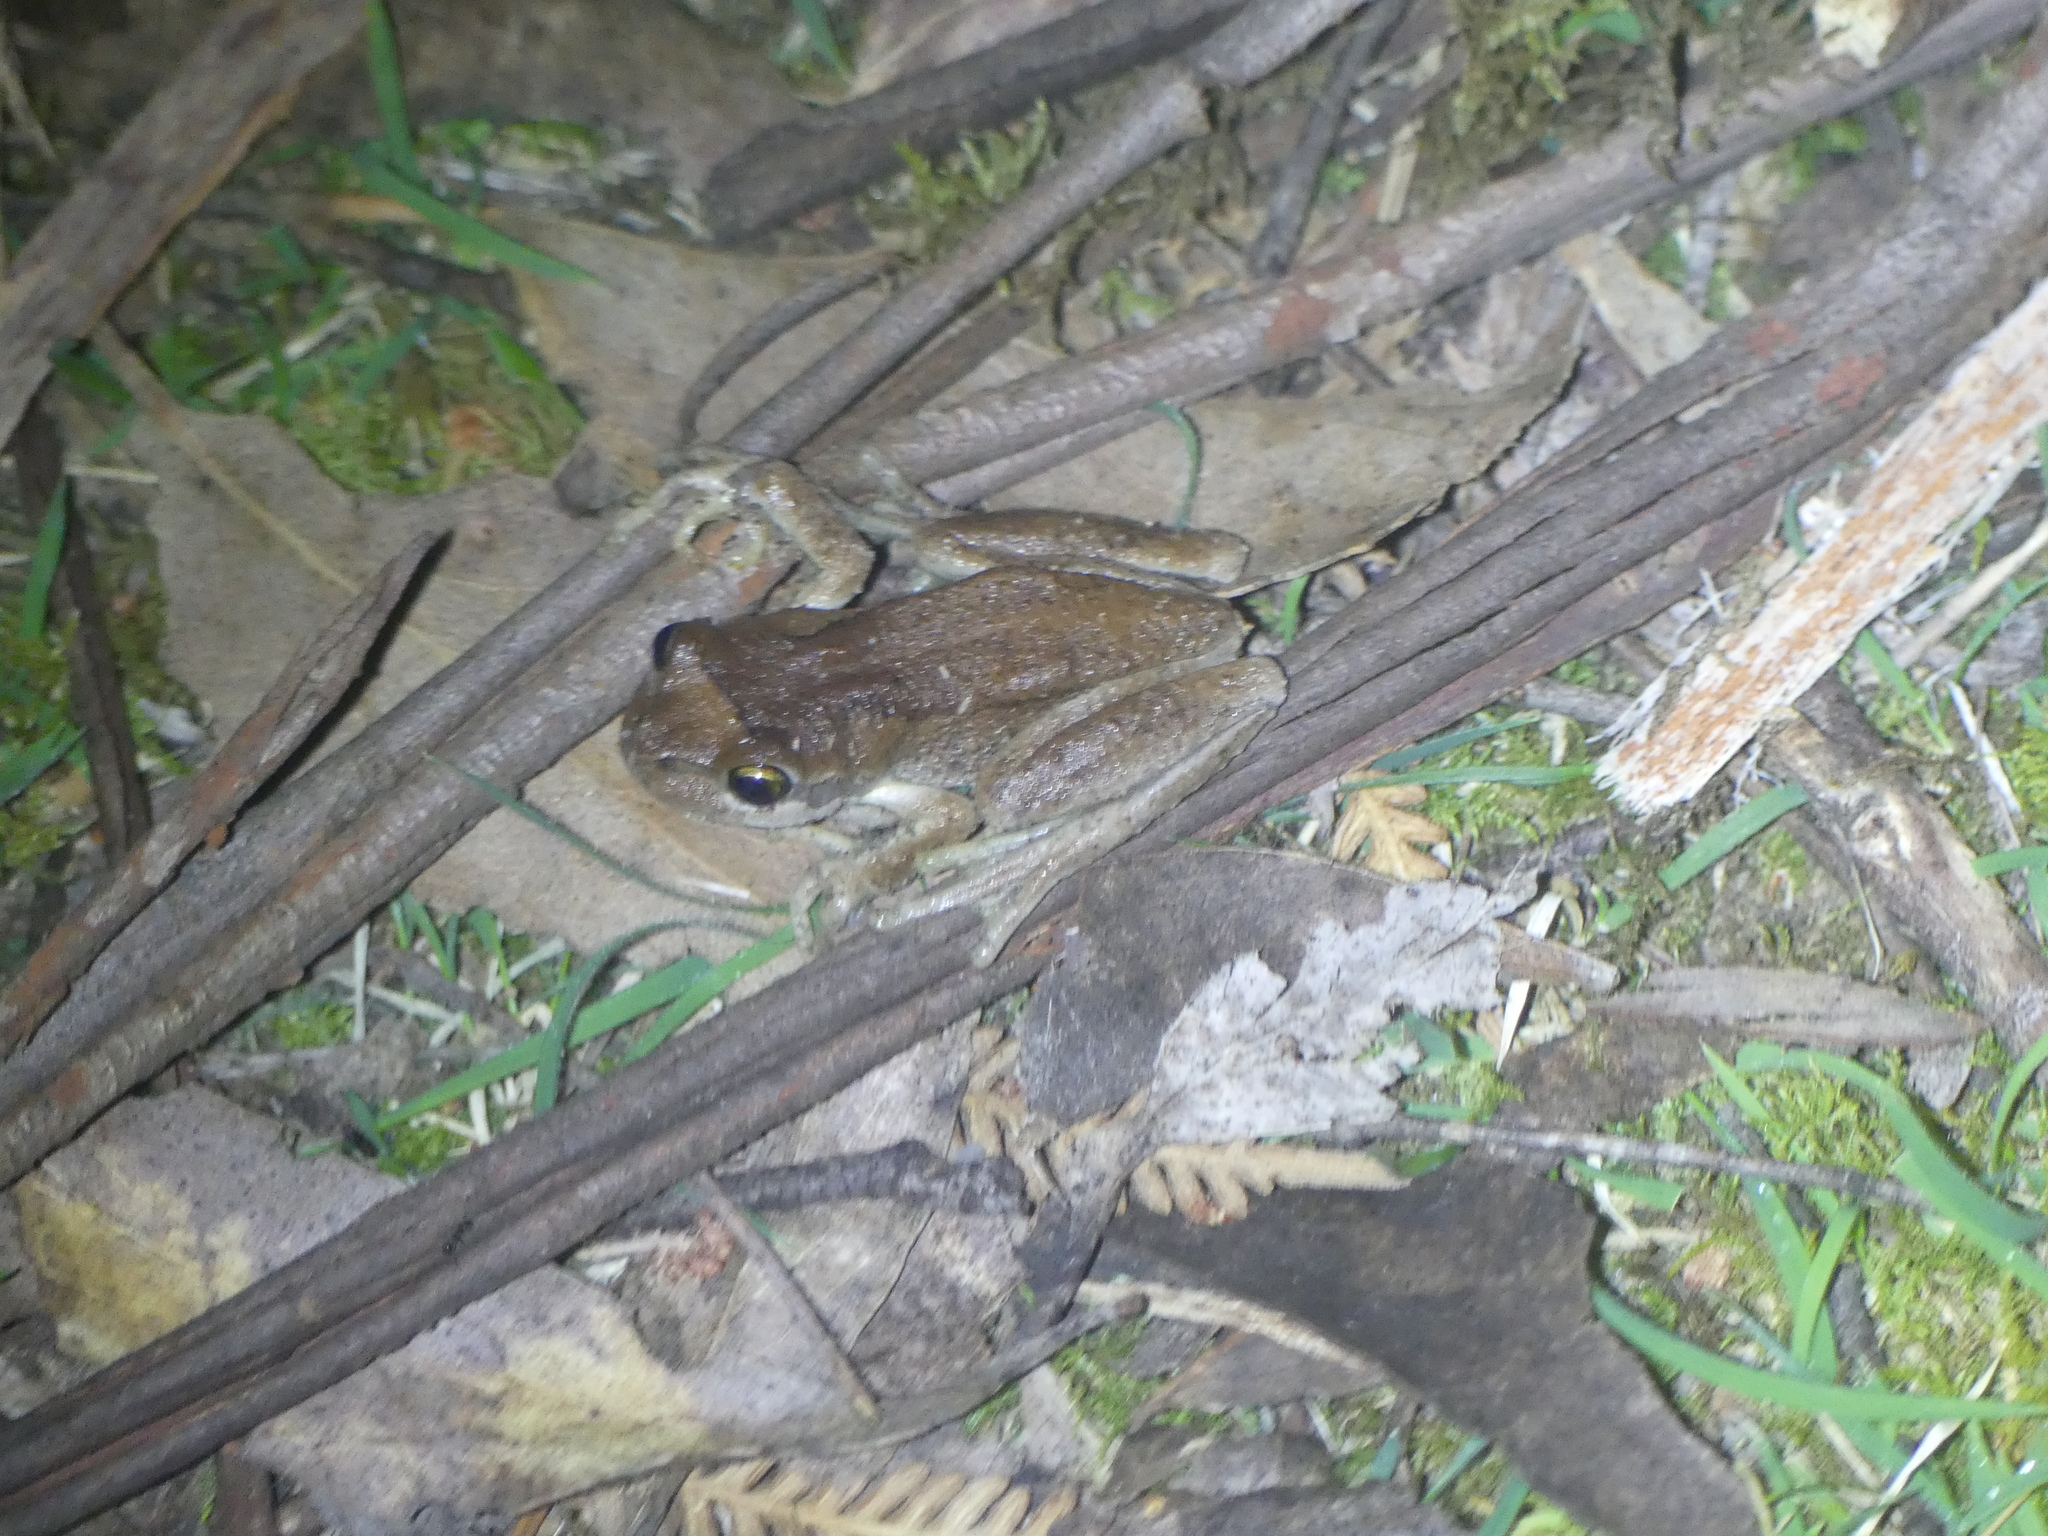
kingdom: Animalia
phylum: Chordata
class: Amphibia
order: Anura
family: Pelodryadidae
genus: Litoria
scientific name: Litoria ewingii
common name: Southern brown tree frog
